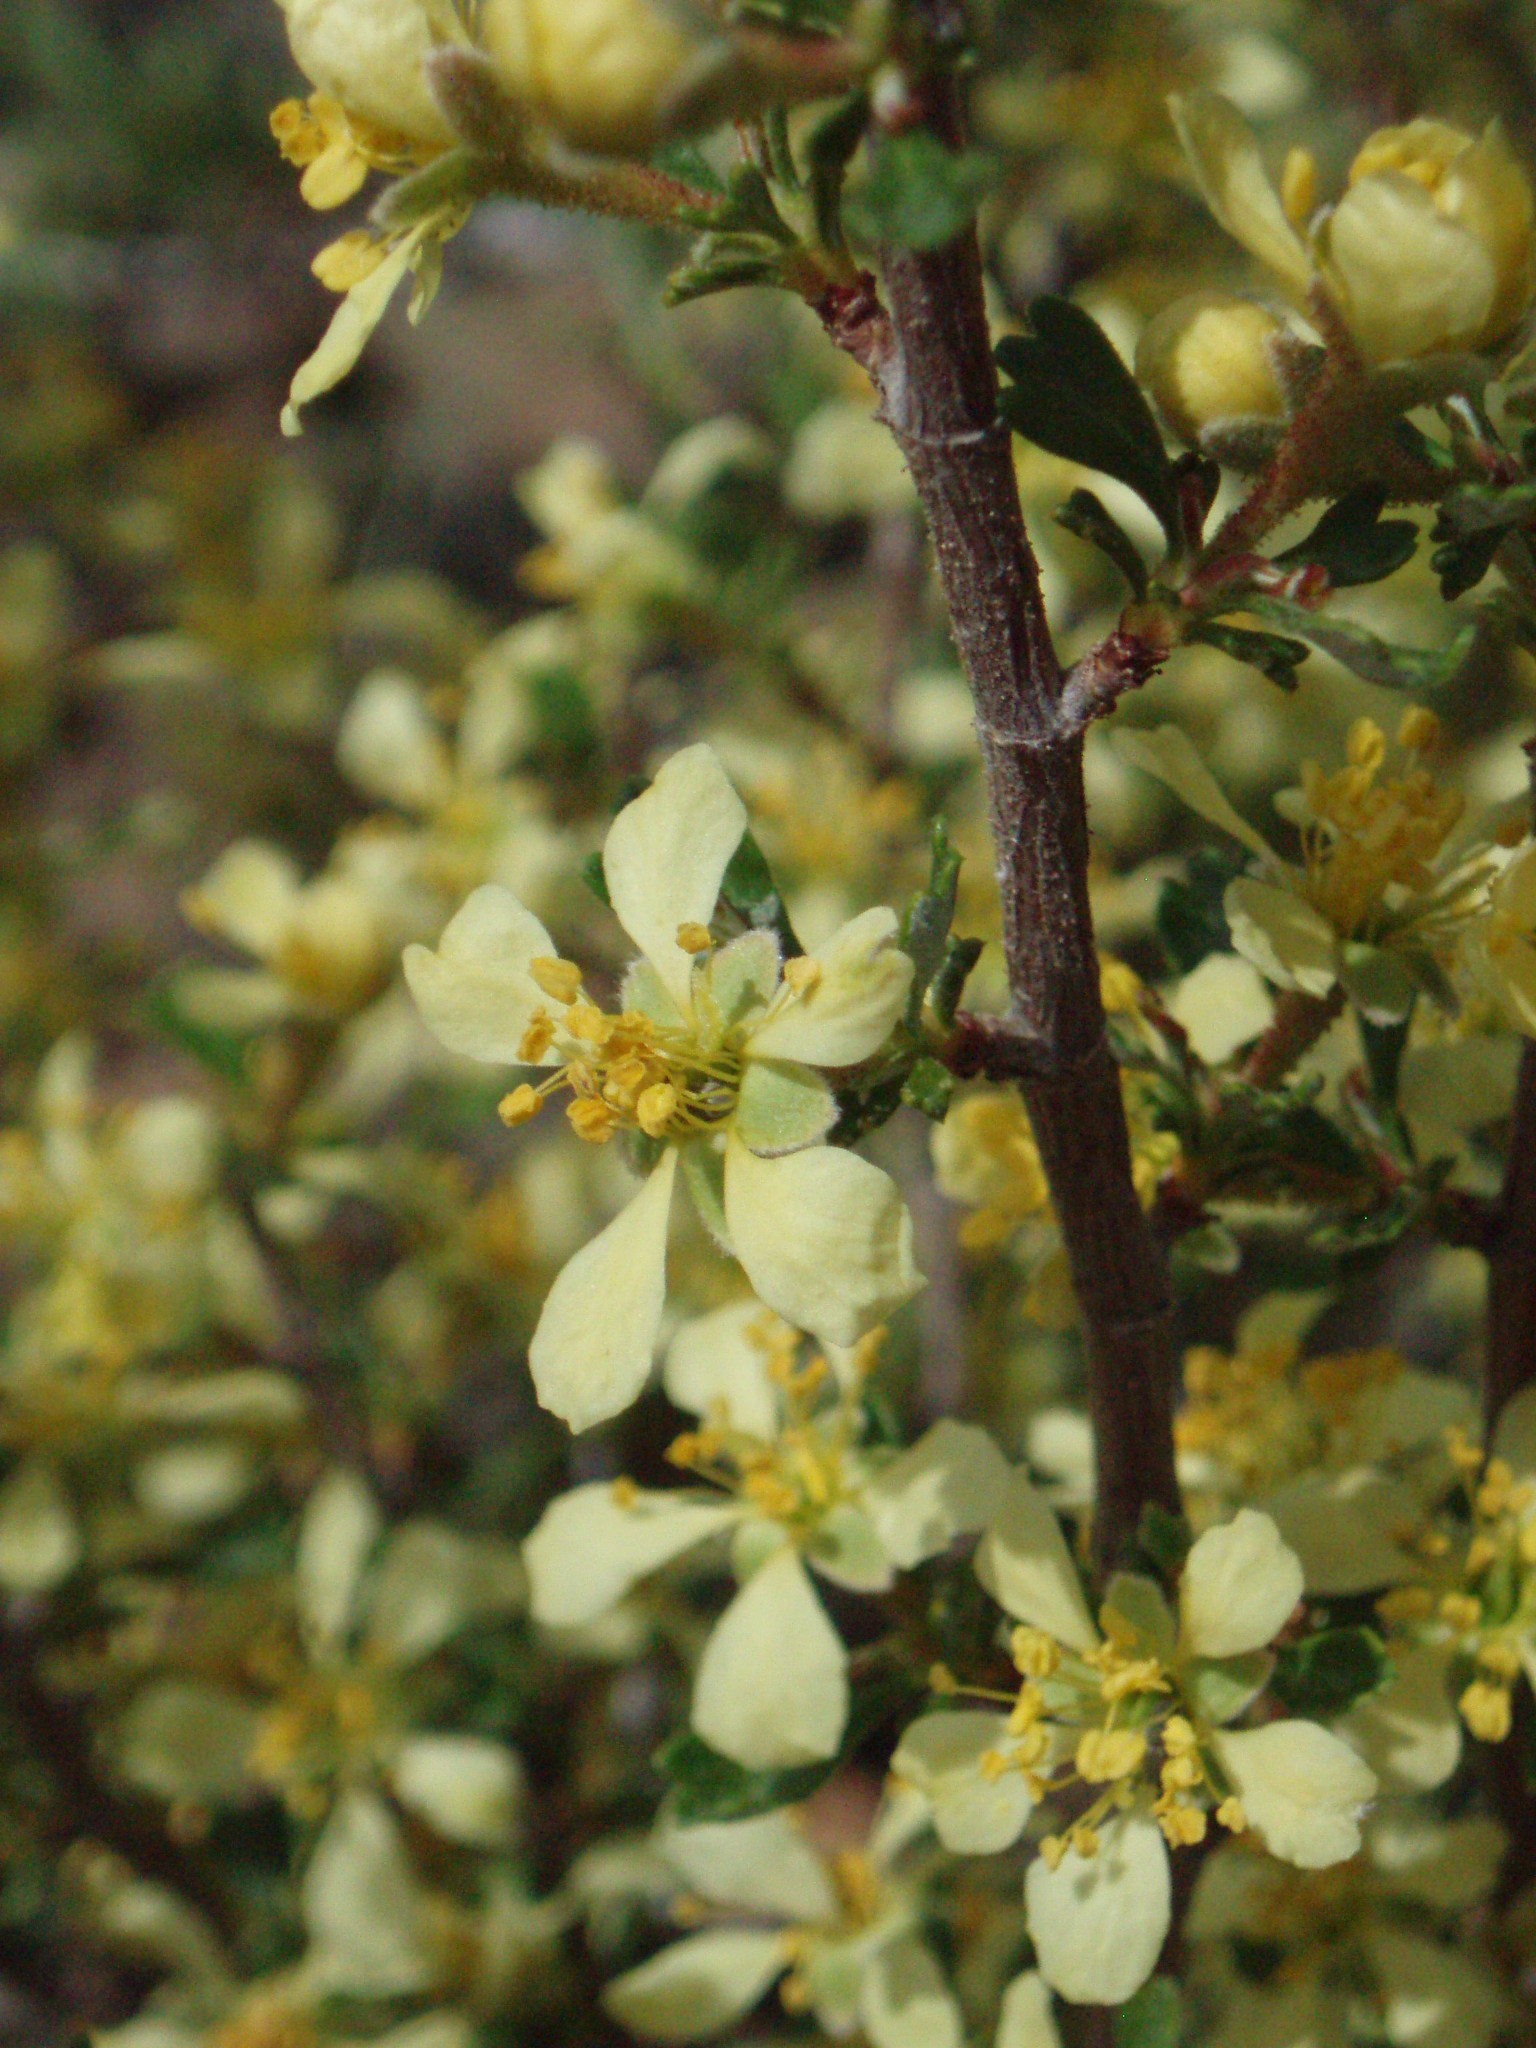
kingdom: Plantae
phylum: Tracheophyta
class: Magnoliopsida
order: Rosales
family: Rosaceae
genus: Purshia
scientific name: Purshia tridentata
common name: Antelope bitterbrush
